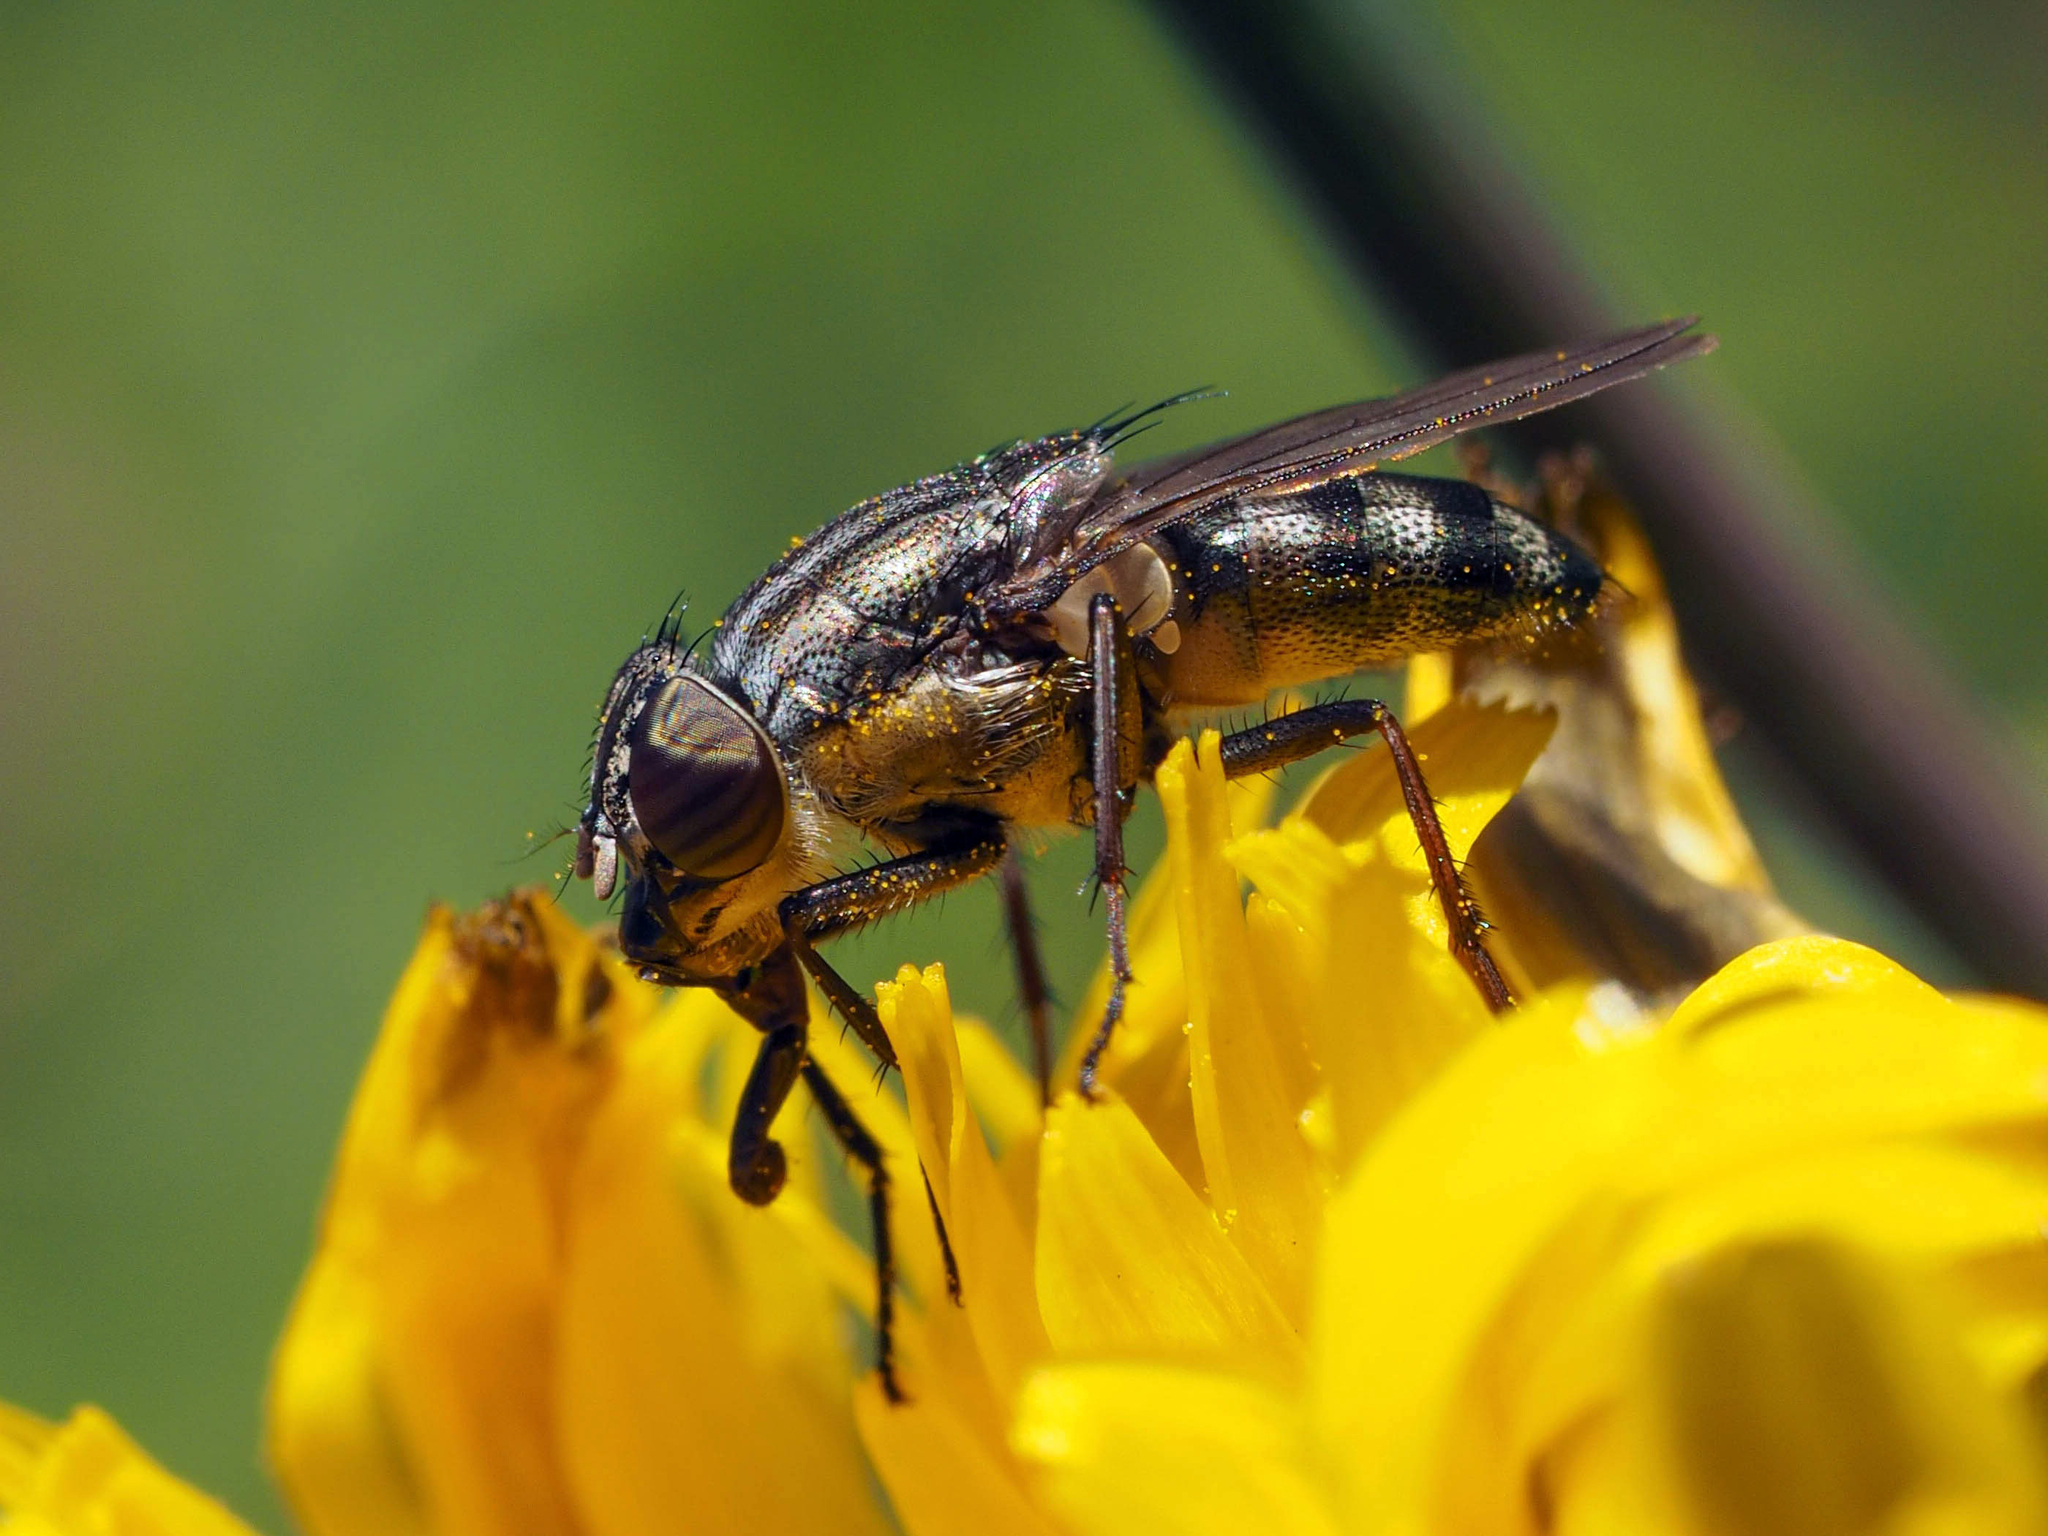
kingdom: Animalia
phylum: Arthropoda
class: Insecta
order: Diptera
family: Calliphoridae
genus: Stomorhina
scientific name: Stomorhina lunata
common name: Locust blowfly
